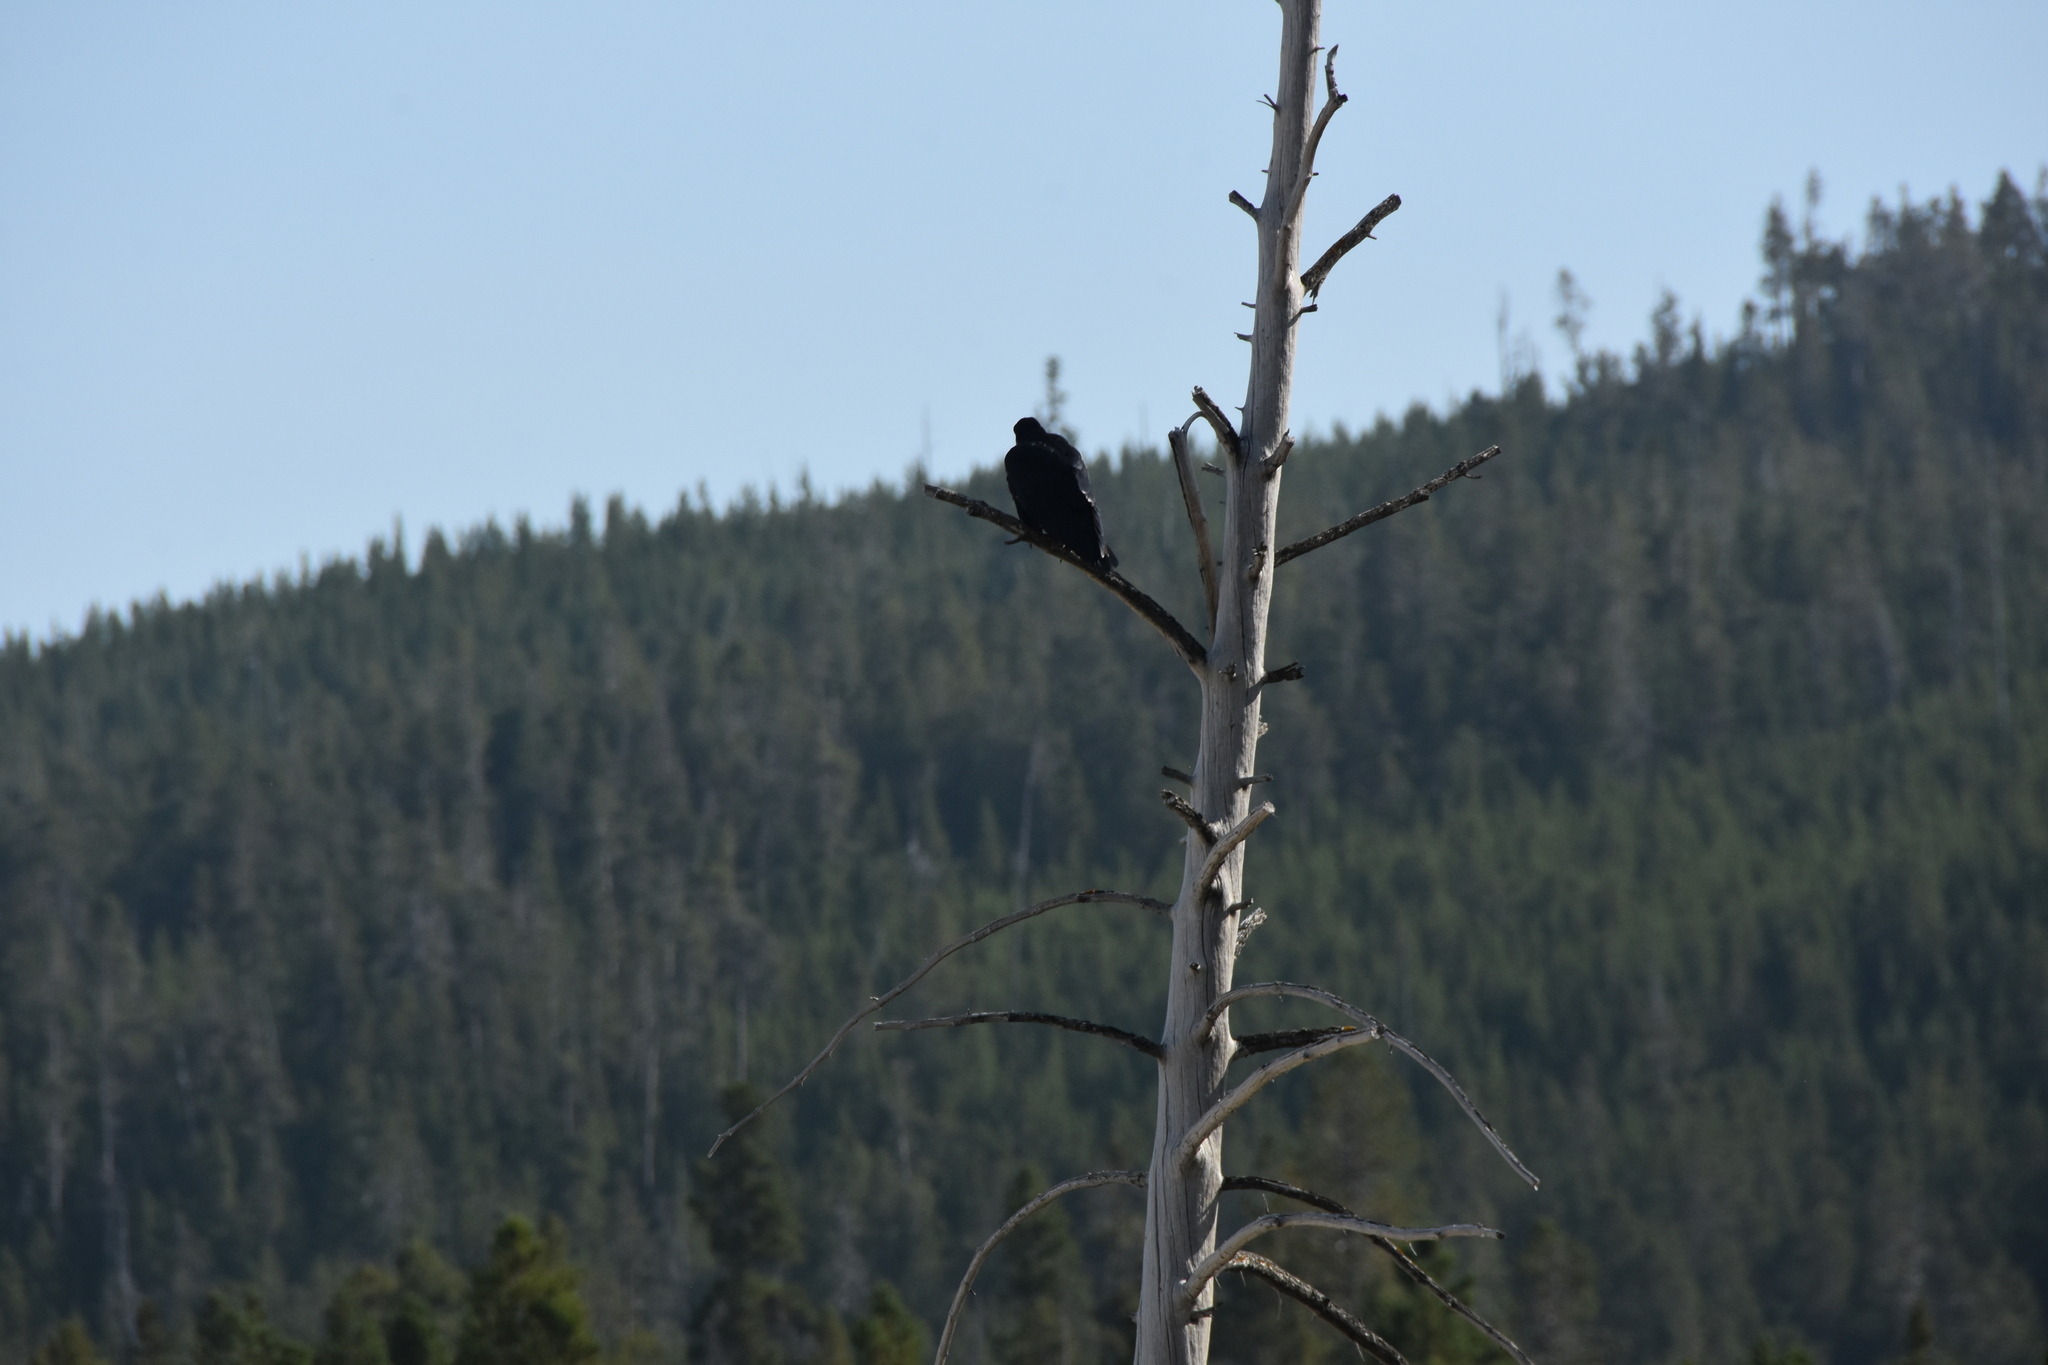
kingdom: Animalia
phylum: Chordata
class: Aves
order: Passeriformes
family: Corvidae
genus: Corvus
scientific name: Corvus corax
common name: Common raven
